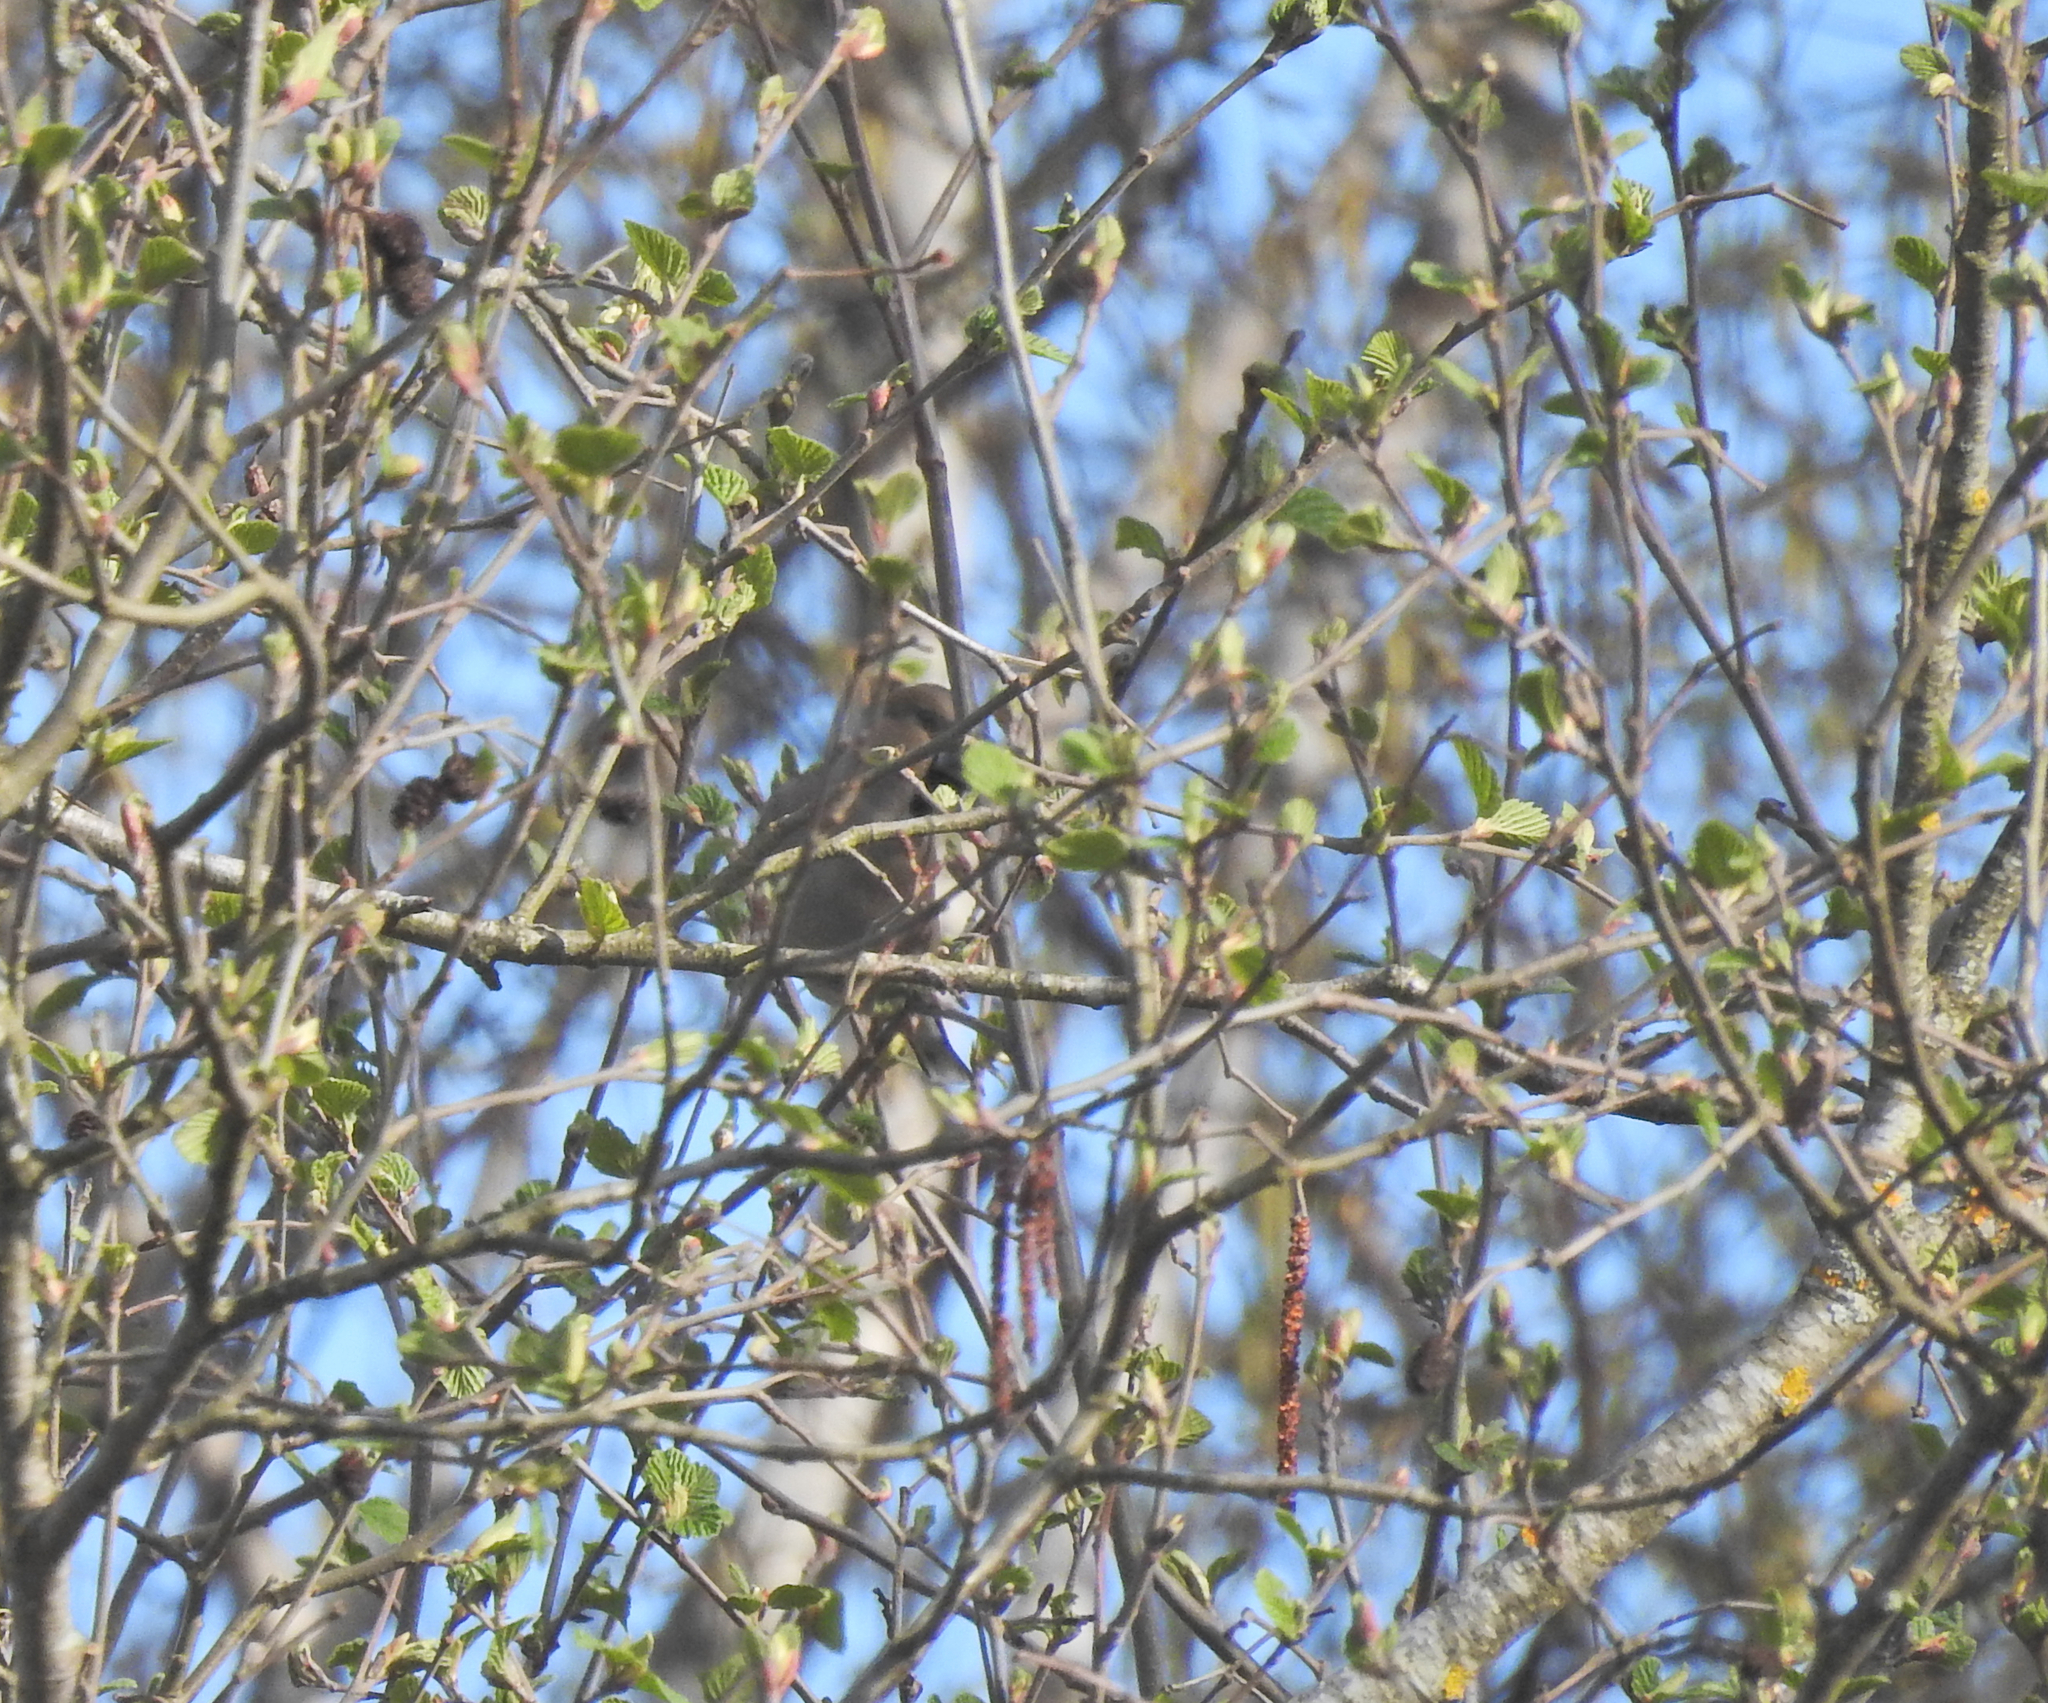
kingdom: Animalia
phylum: Chordata
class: Aves
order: Passeriformes
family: Fringillidae
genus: Coccothraustes
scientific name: Coccothraustes coccothraustes
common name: Hawfinch
